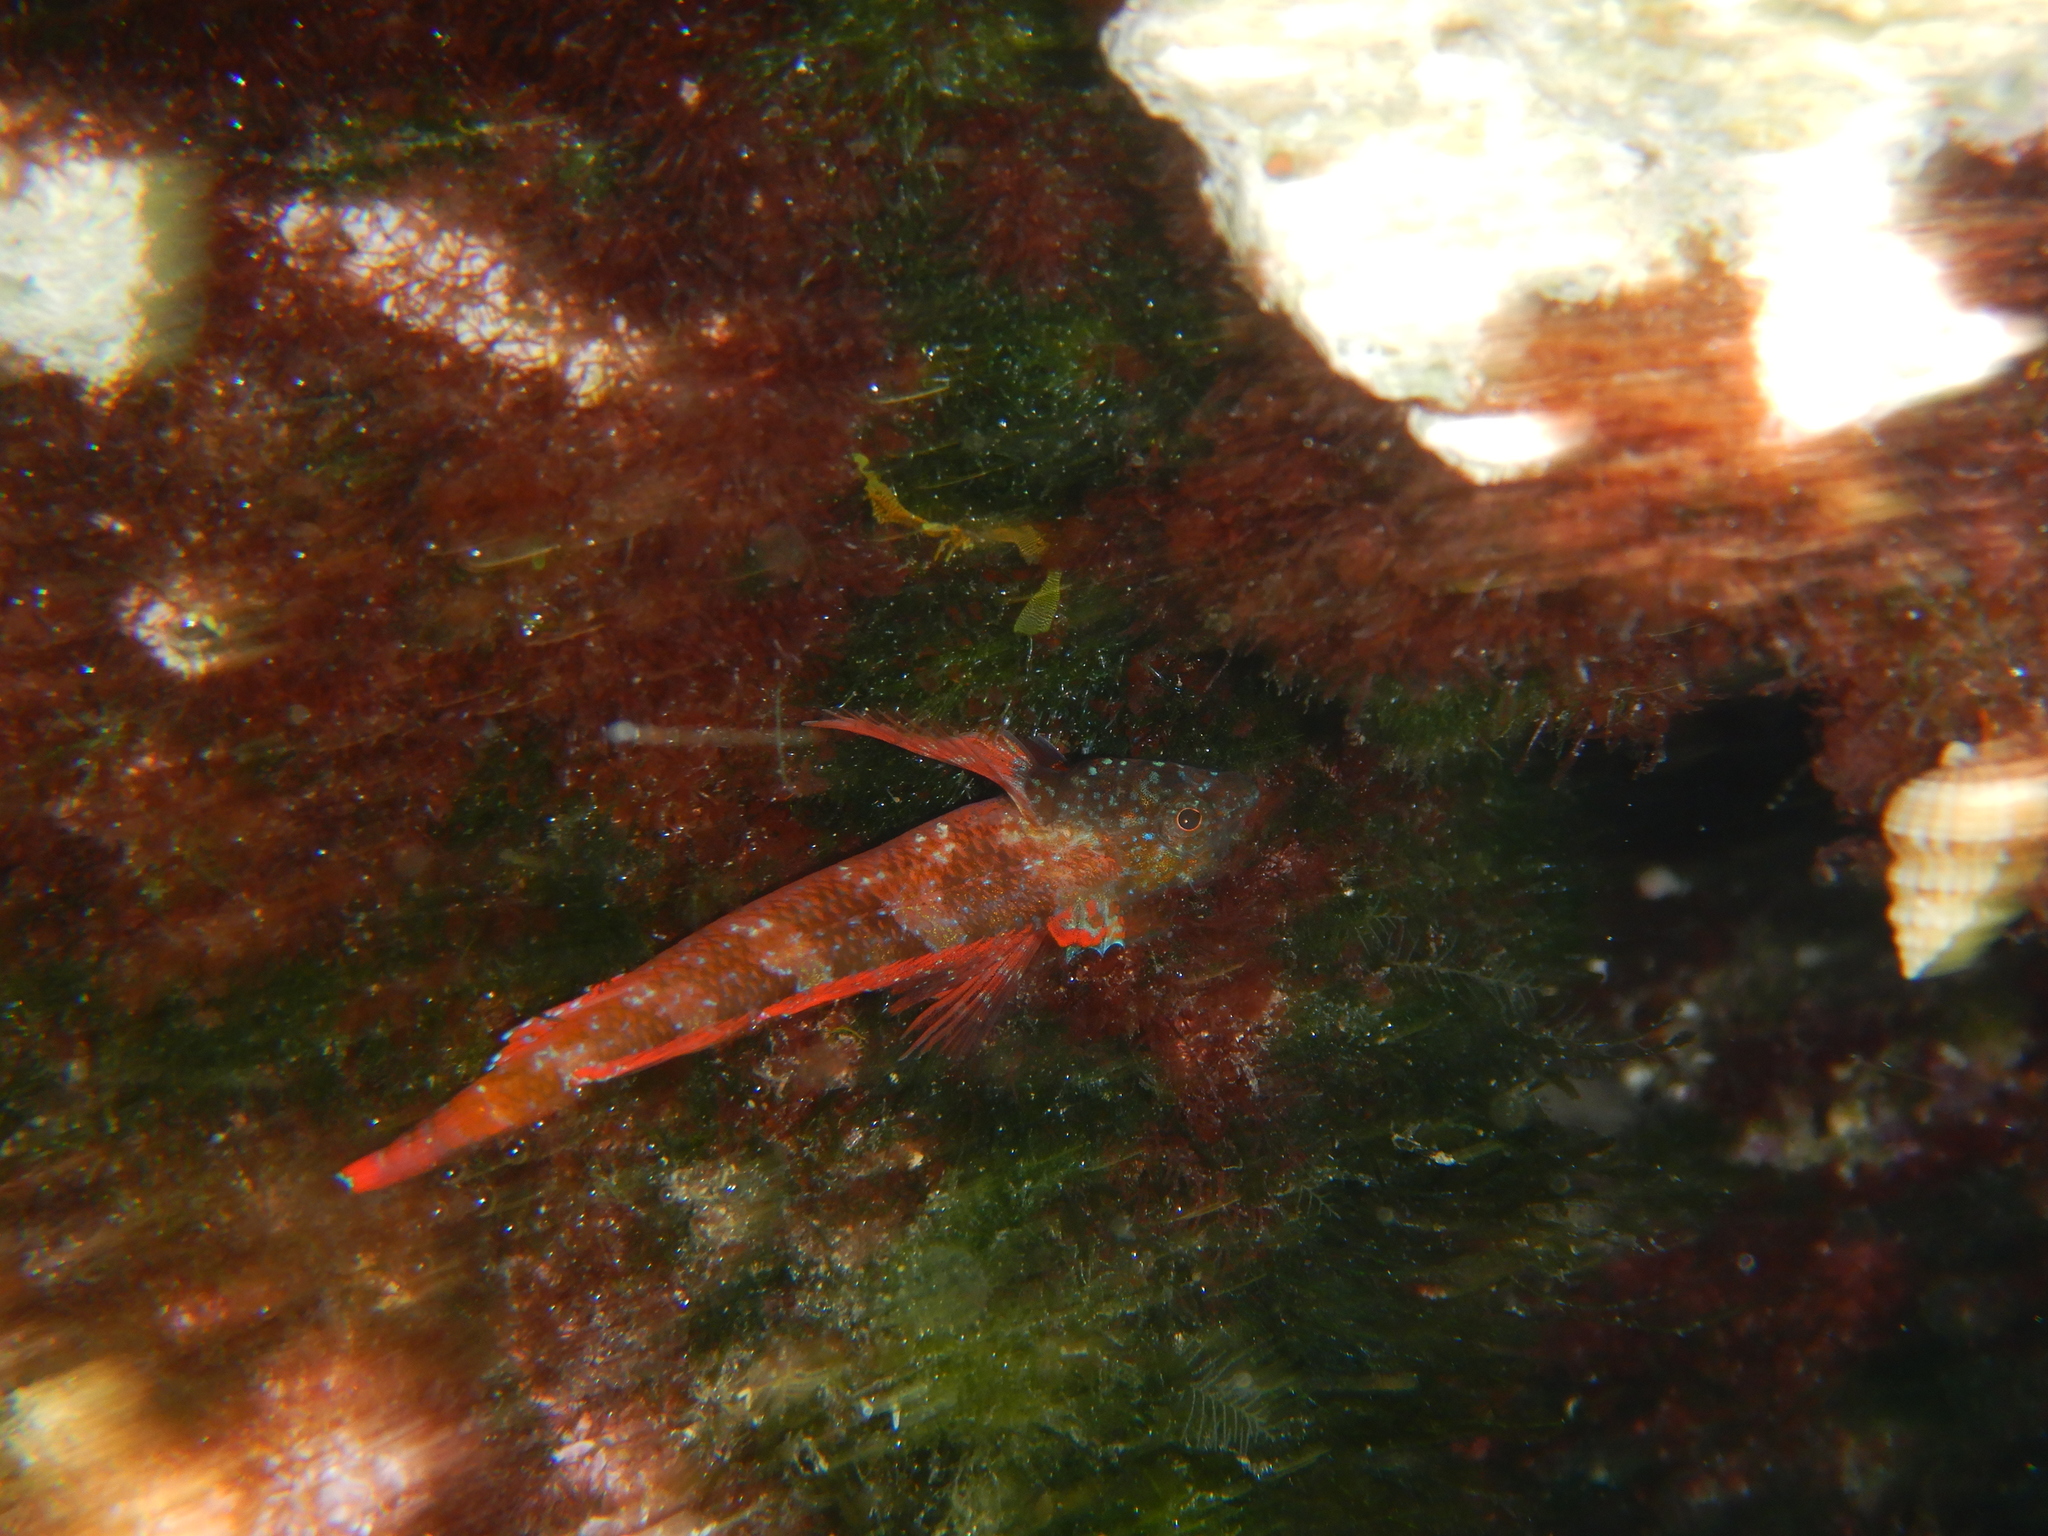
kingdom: Animalia
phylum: Chordata
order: Perciformes
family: Tripterygiidae
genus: Tripterygion
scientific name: Tripterygion tripteronotum
